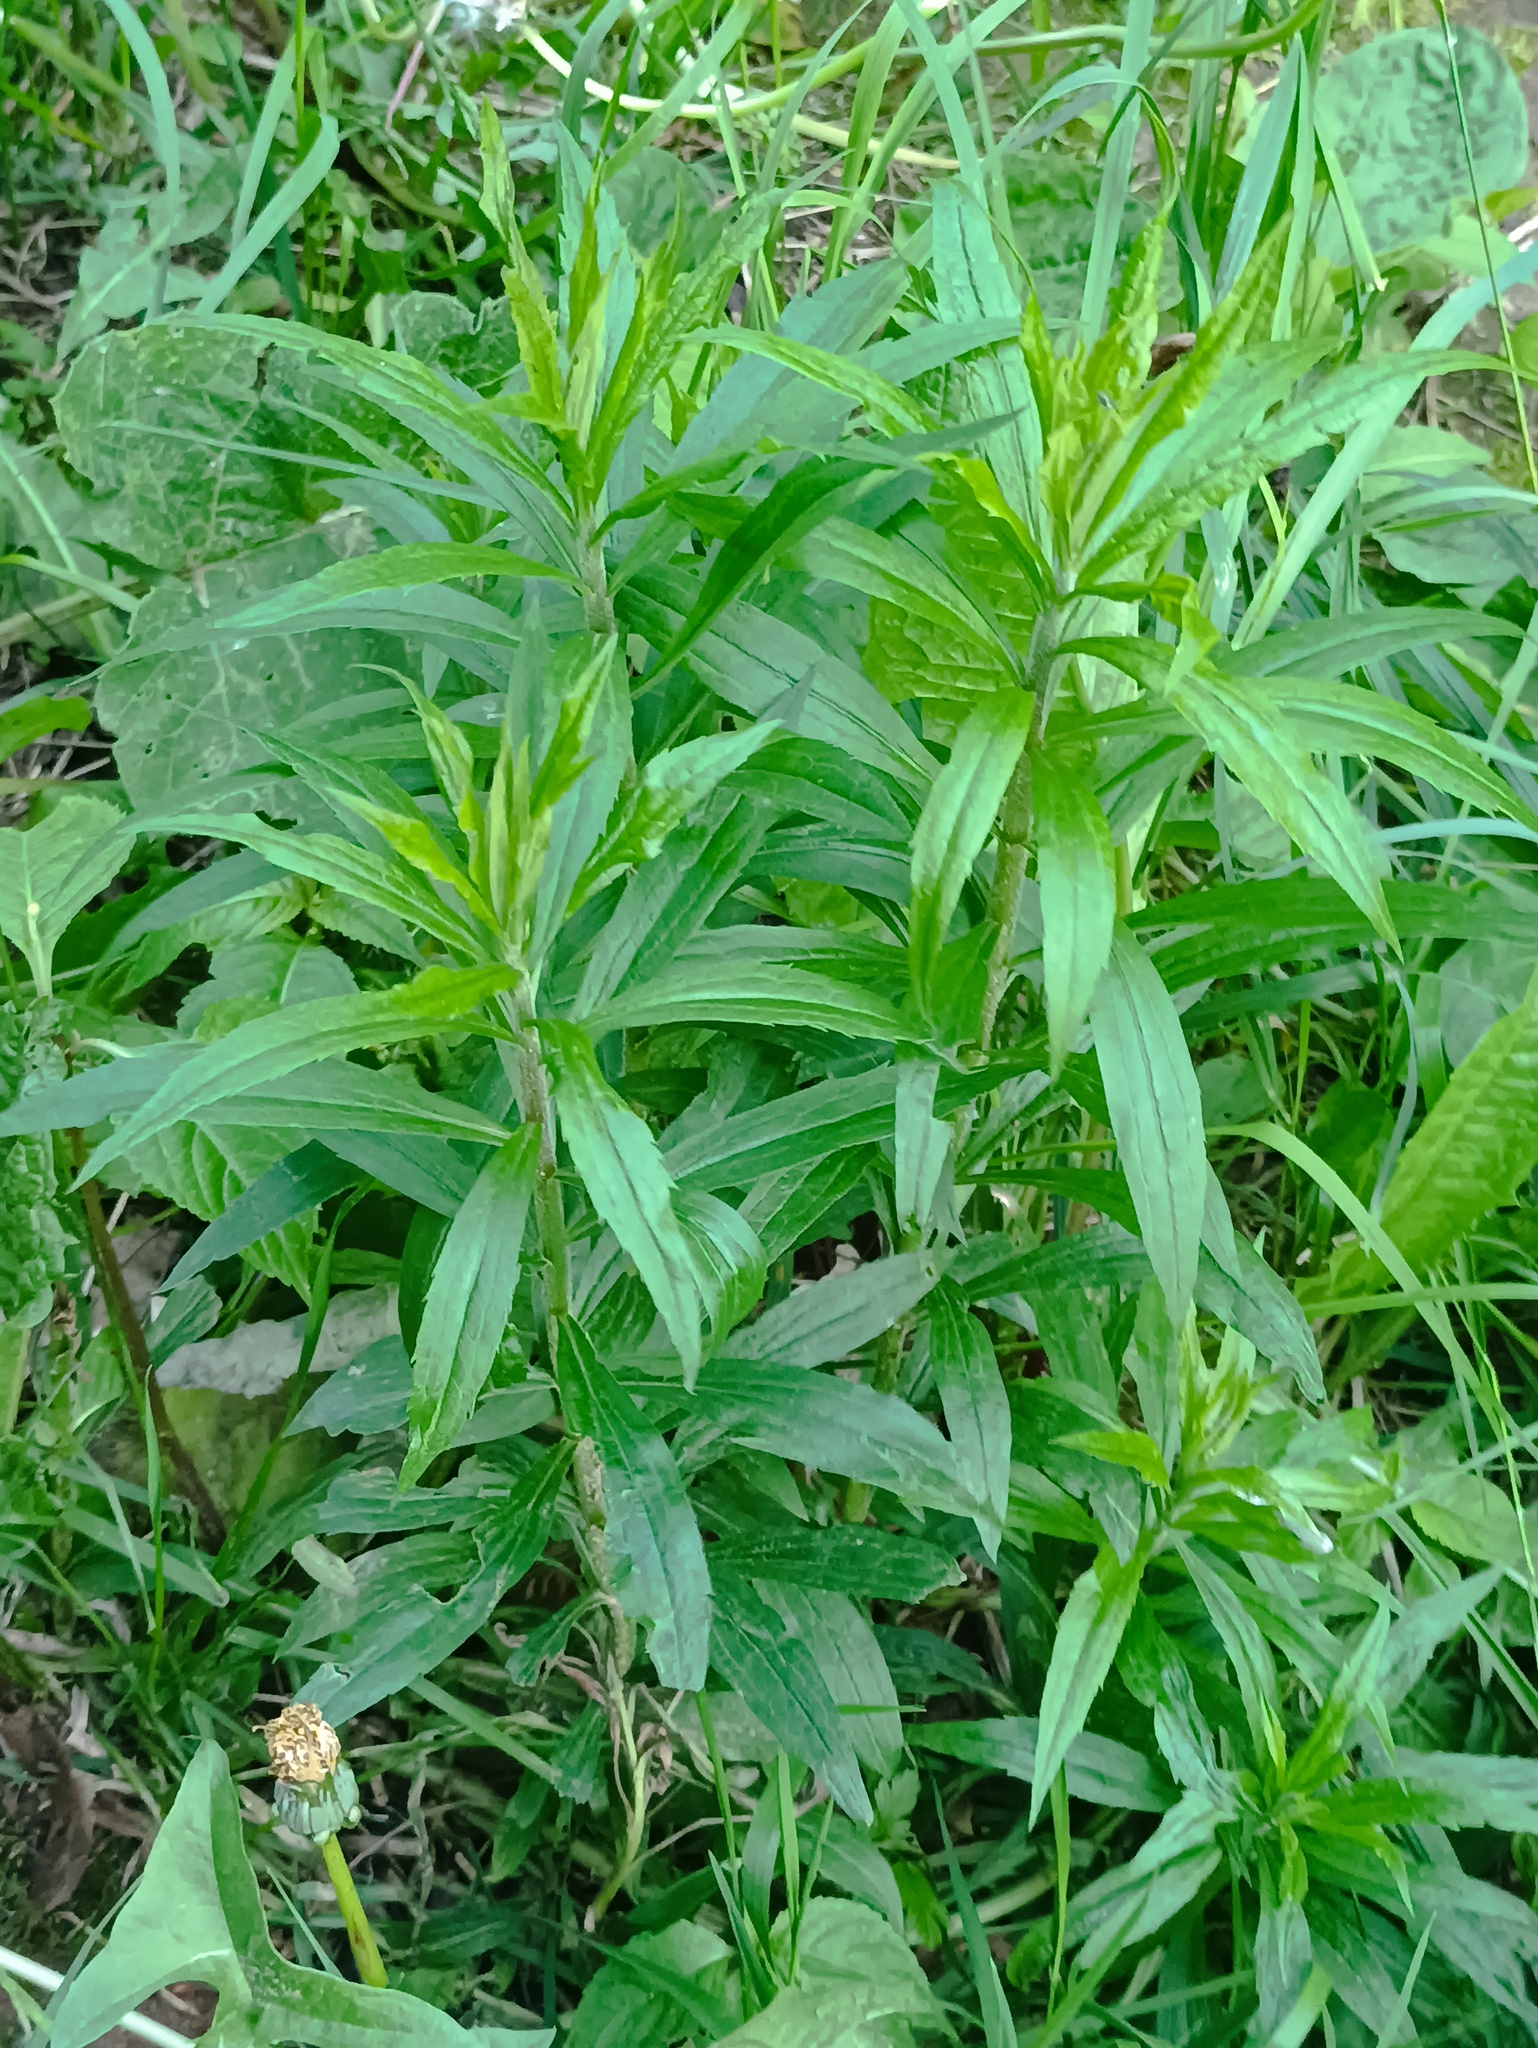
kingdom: Plantae
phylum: Tracheophyta
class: Magnoliopsida
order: Asterales
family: Asteraceae
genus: Solidago
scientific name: Solidago canadensis
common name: Canada goldenrod
